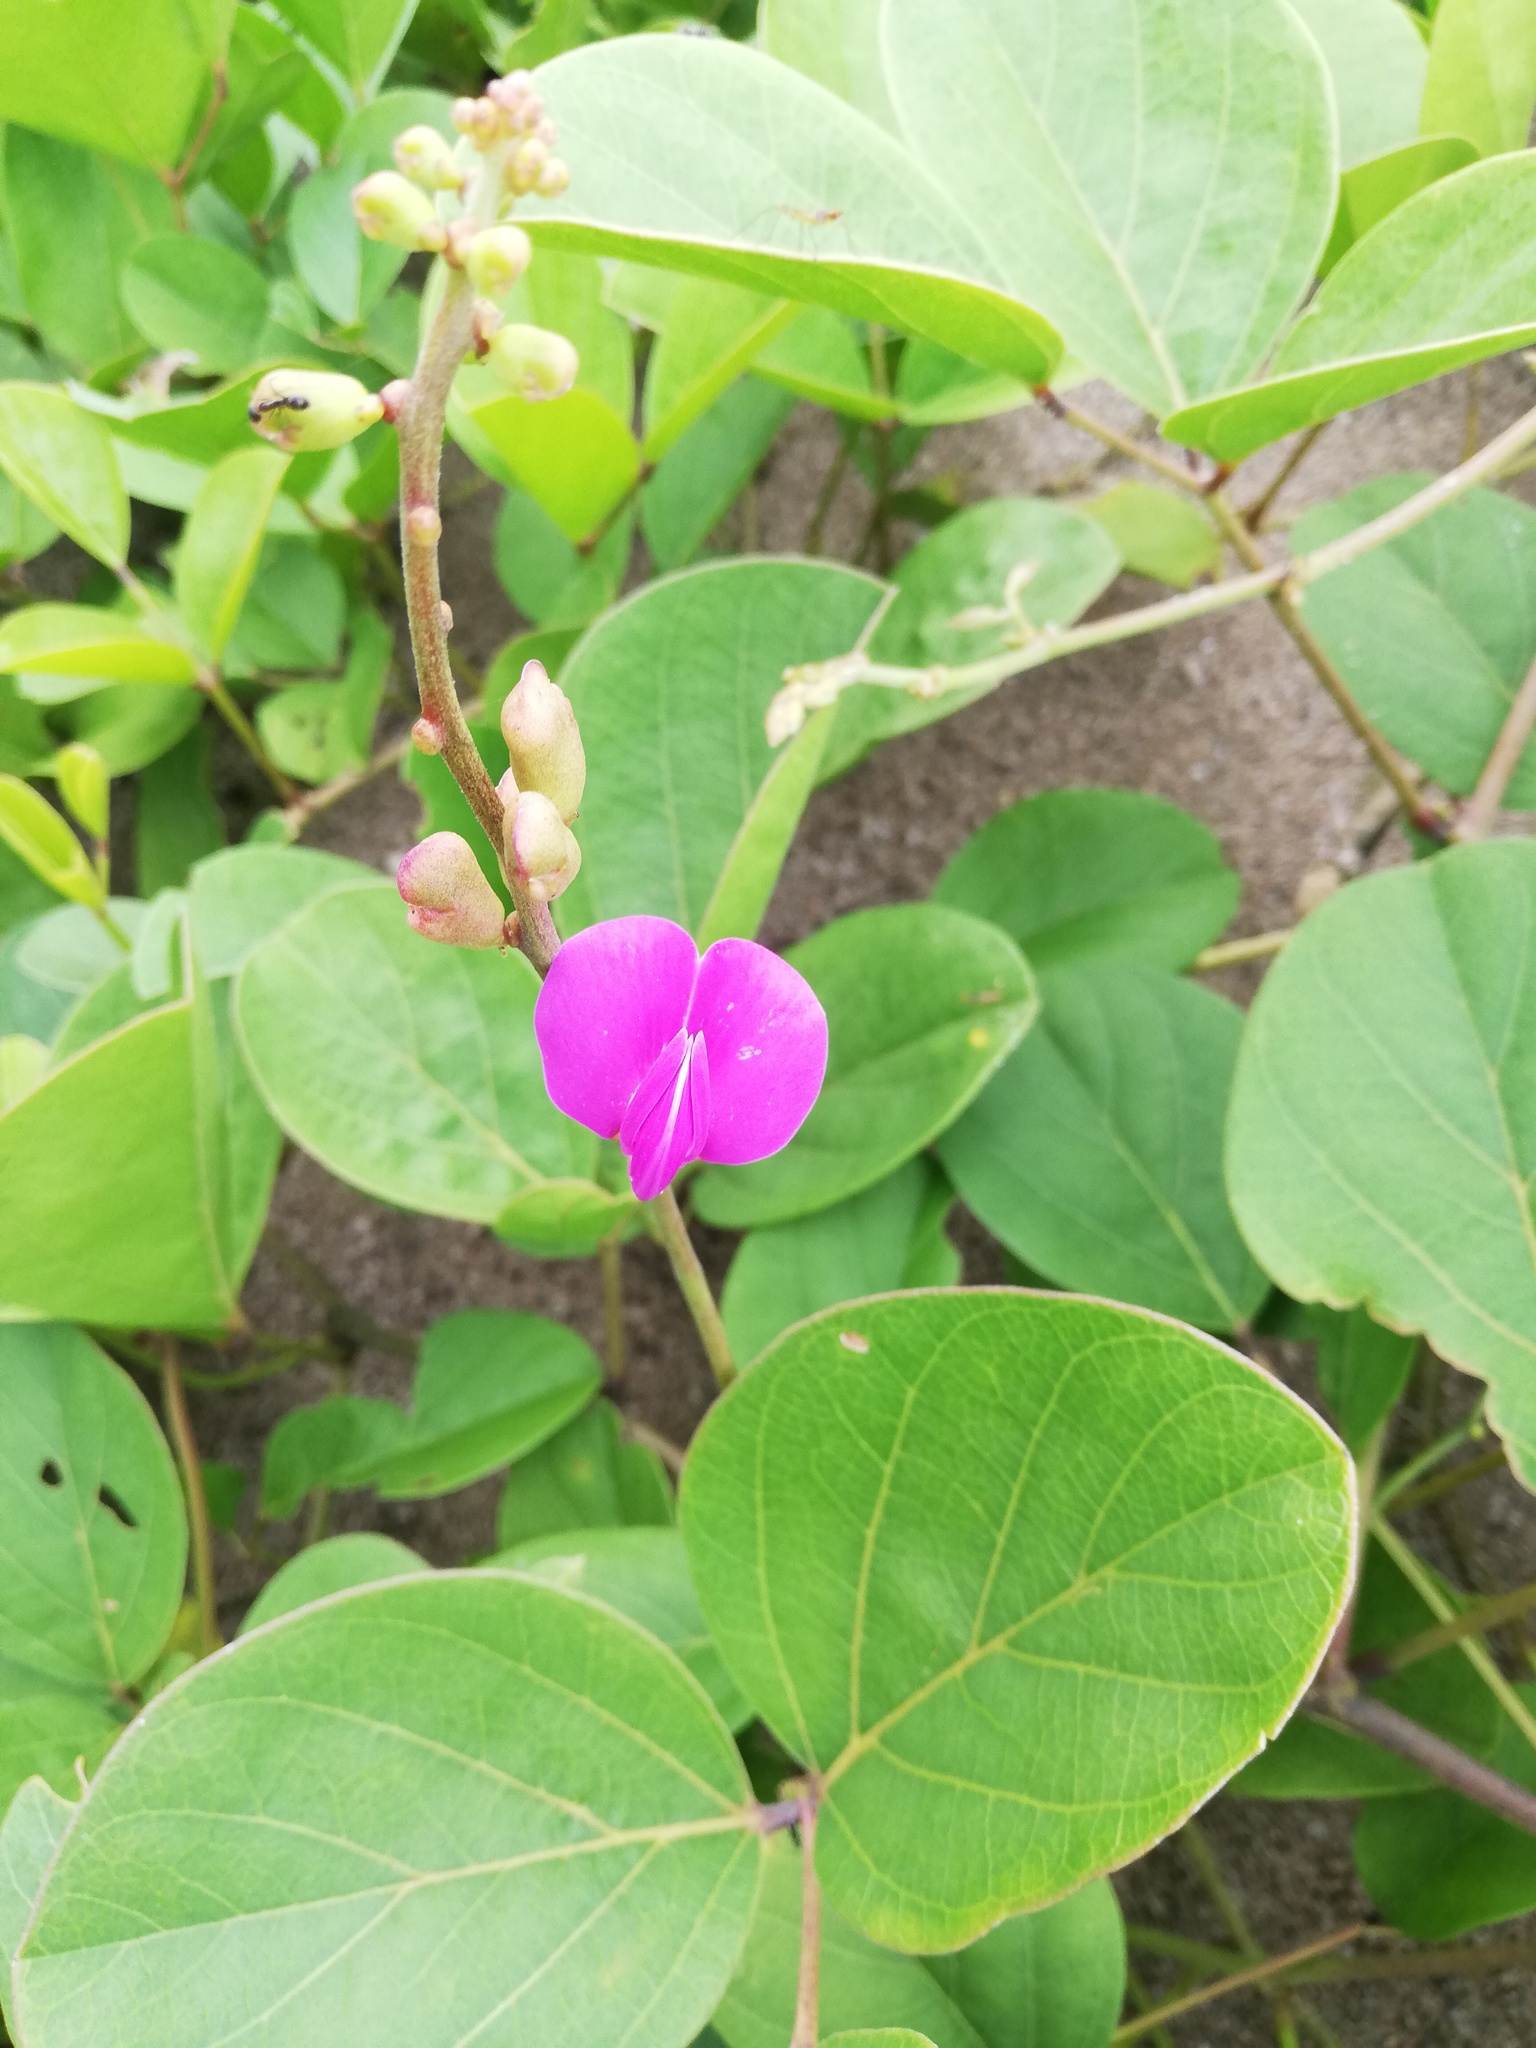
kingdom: Plantae
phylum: Tracheophyta
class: Magnoliopsida
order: Fabales
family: Fabaceae
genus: Canavalia
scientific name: Canavalia rosea
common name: Beach-bean
